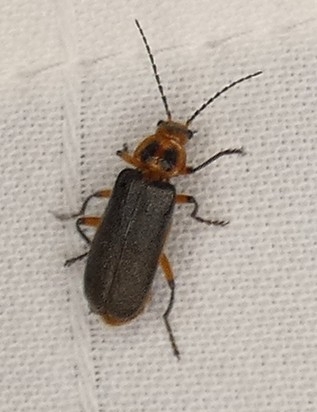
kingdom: Animalia
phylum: Arthropoda
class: Insecta
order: Coleoptera
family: Cantharidae
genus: Atalantycha
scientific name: Atalantycha bilineata
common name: Two-lined leatherwing
